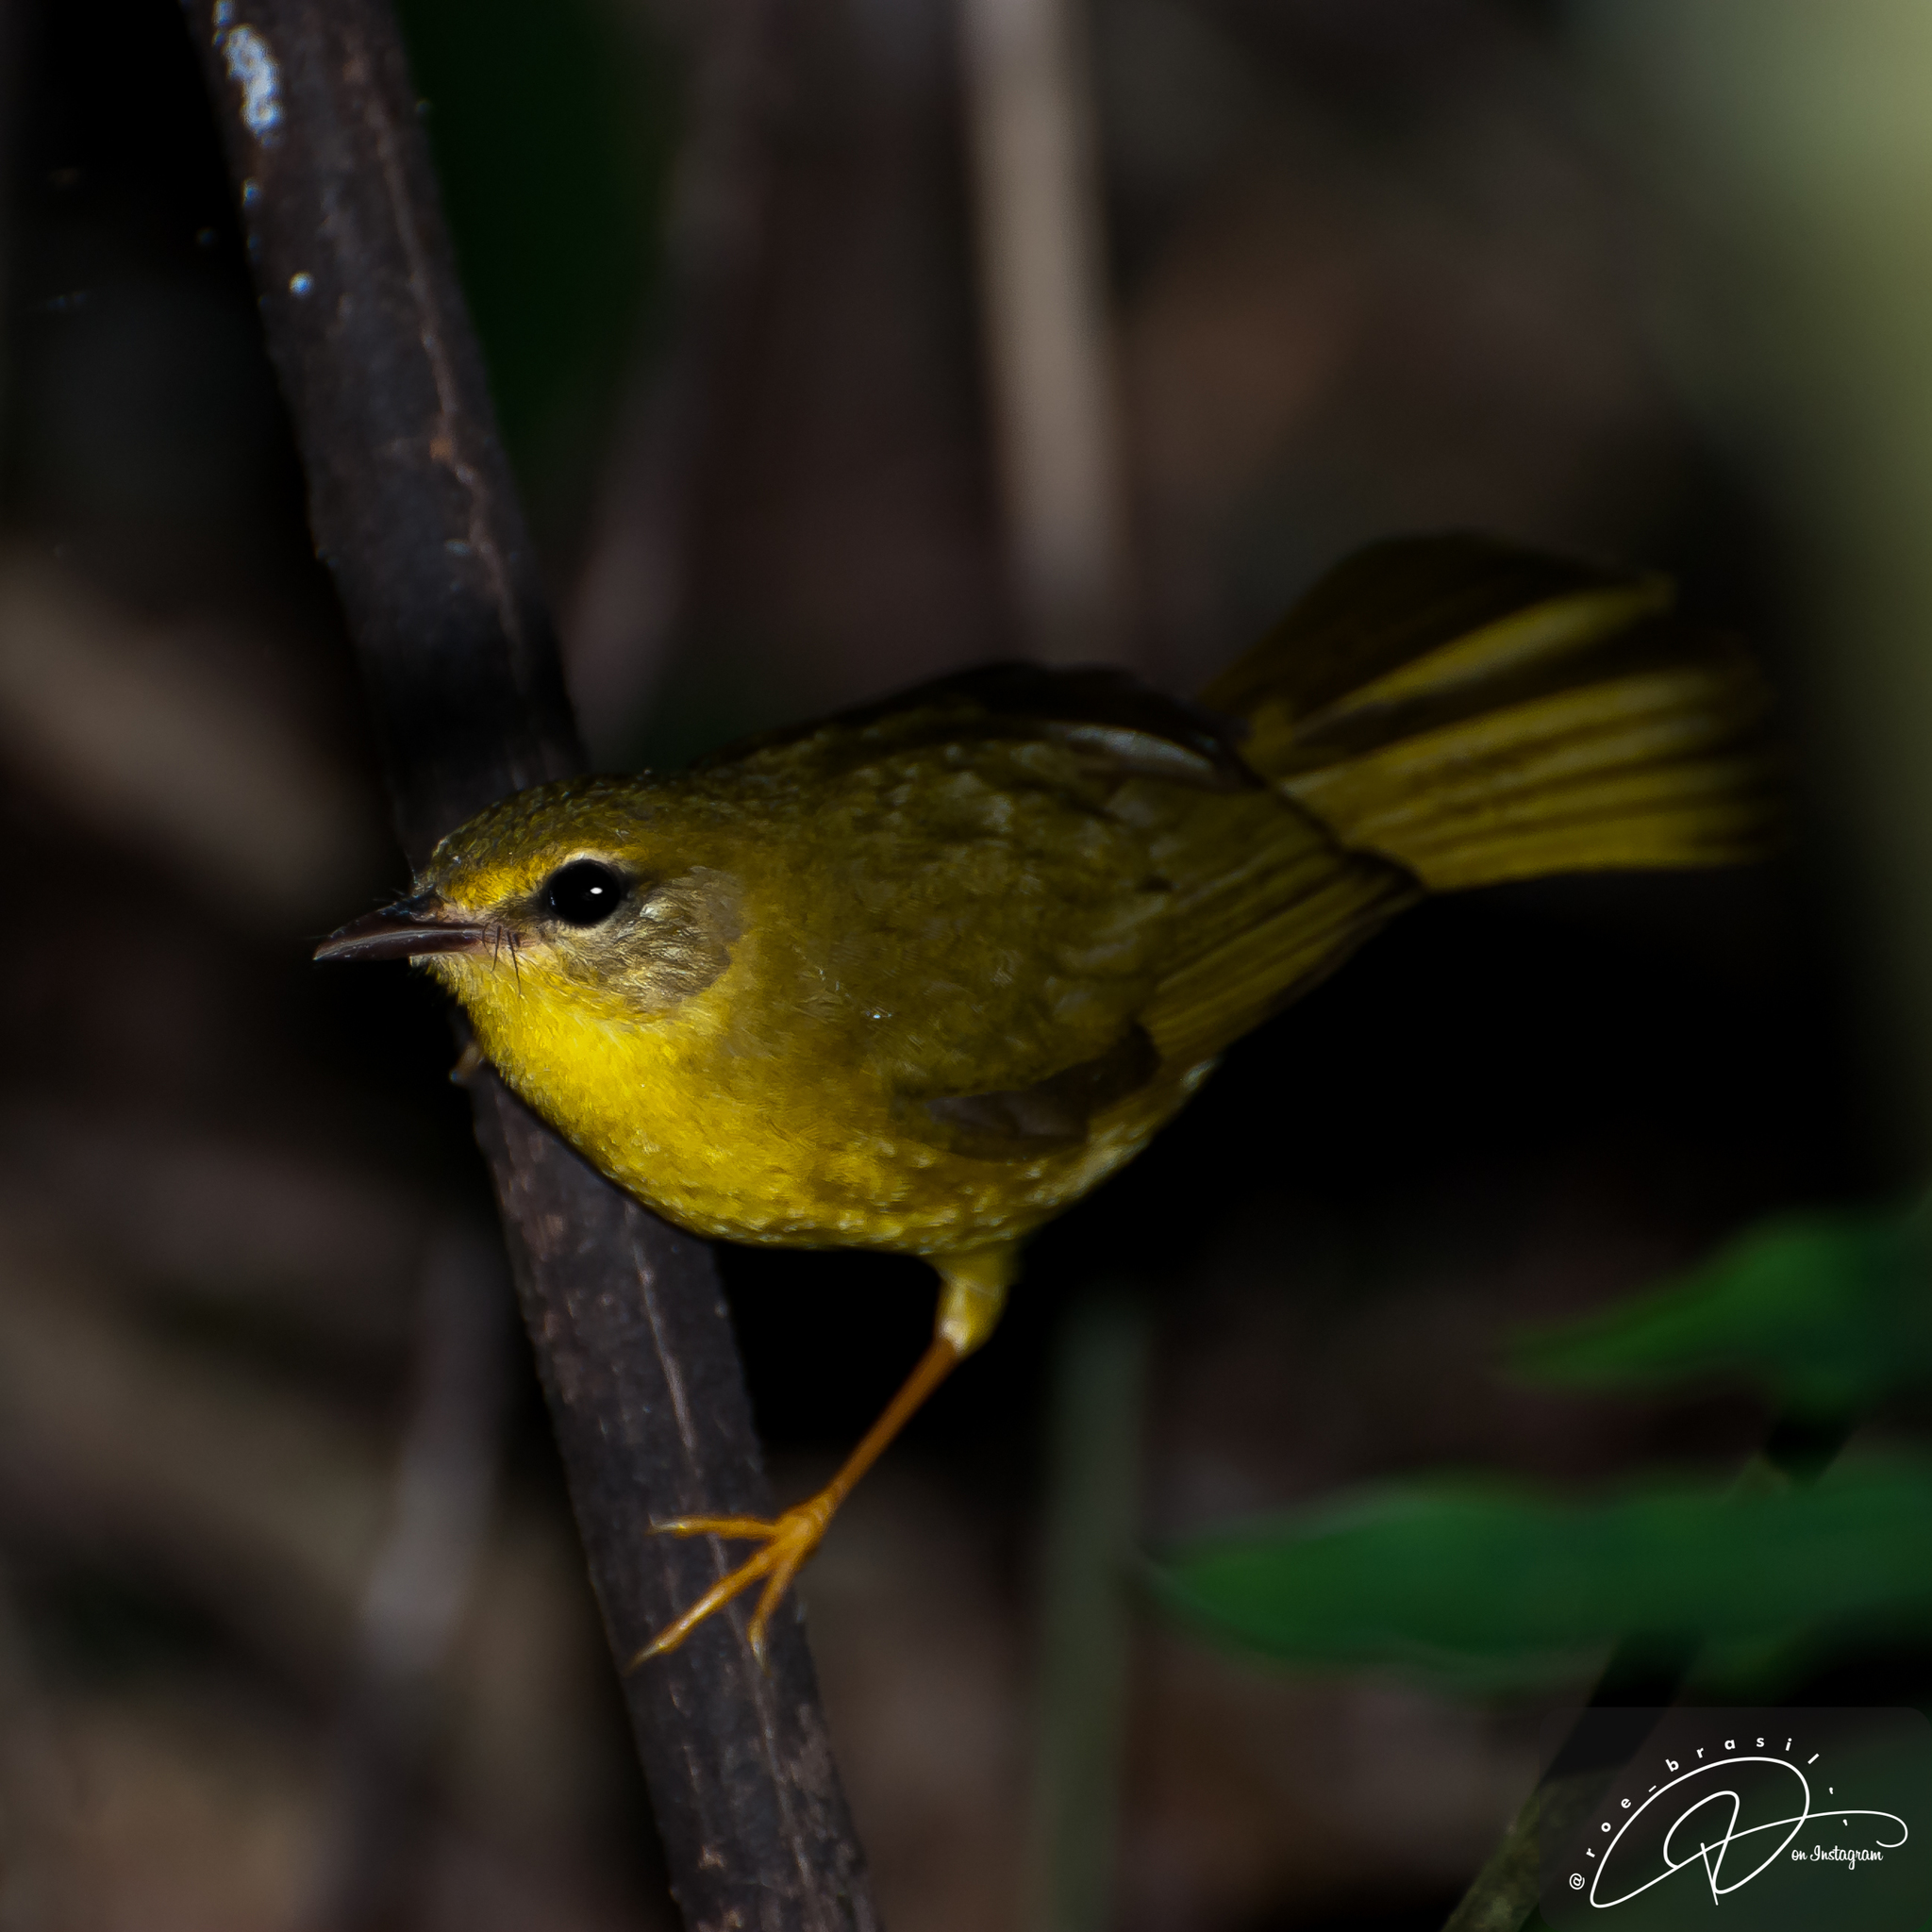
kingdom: Animalia
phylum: Chordata
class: Aves
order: Passeriformes
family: Parulidae
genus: Myiothlypis
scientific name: Myiothlypis flaveola
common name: Flavescent warbler
